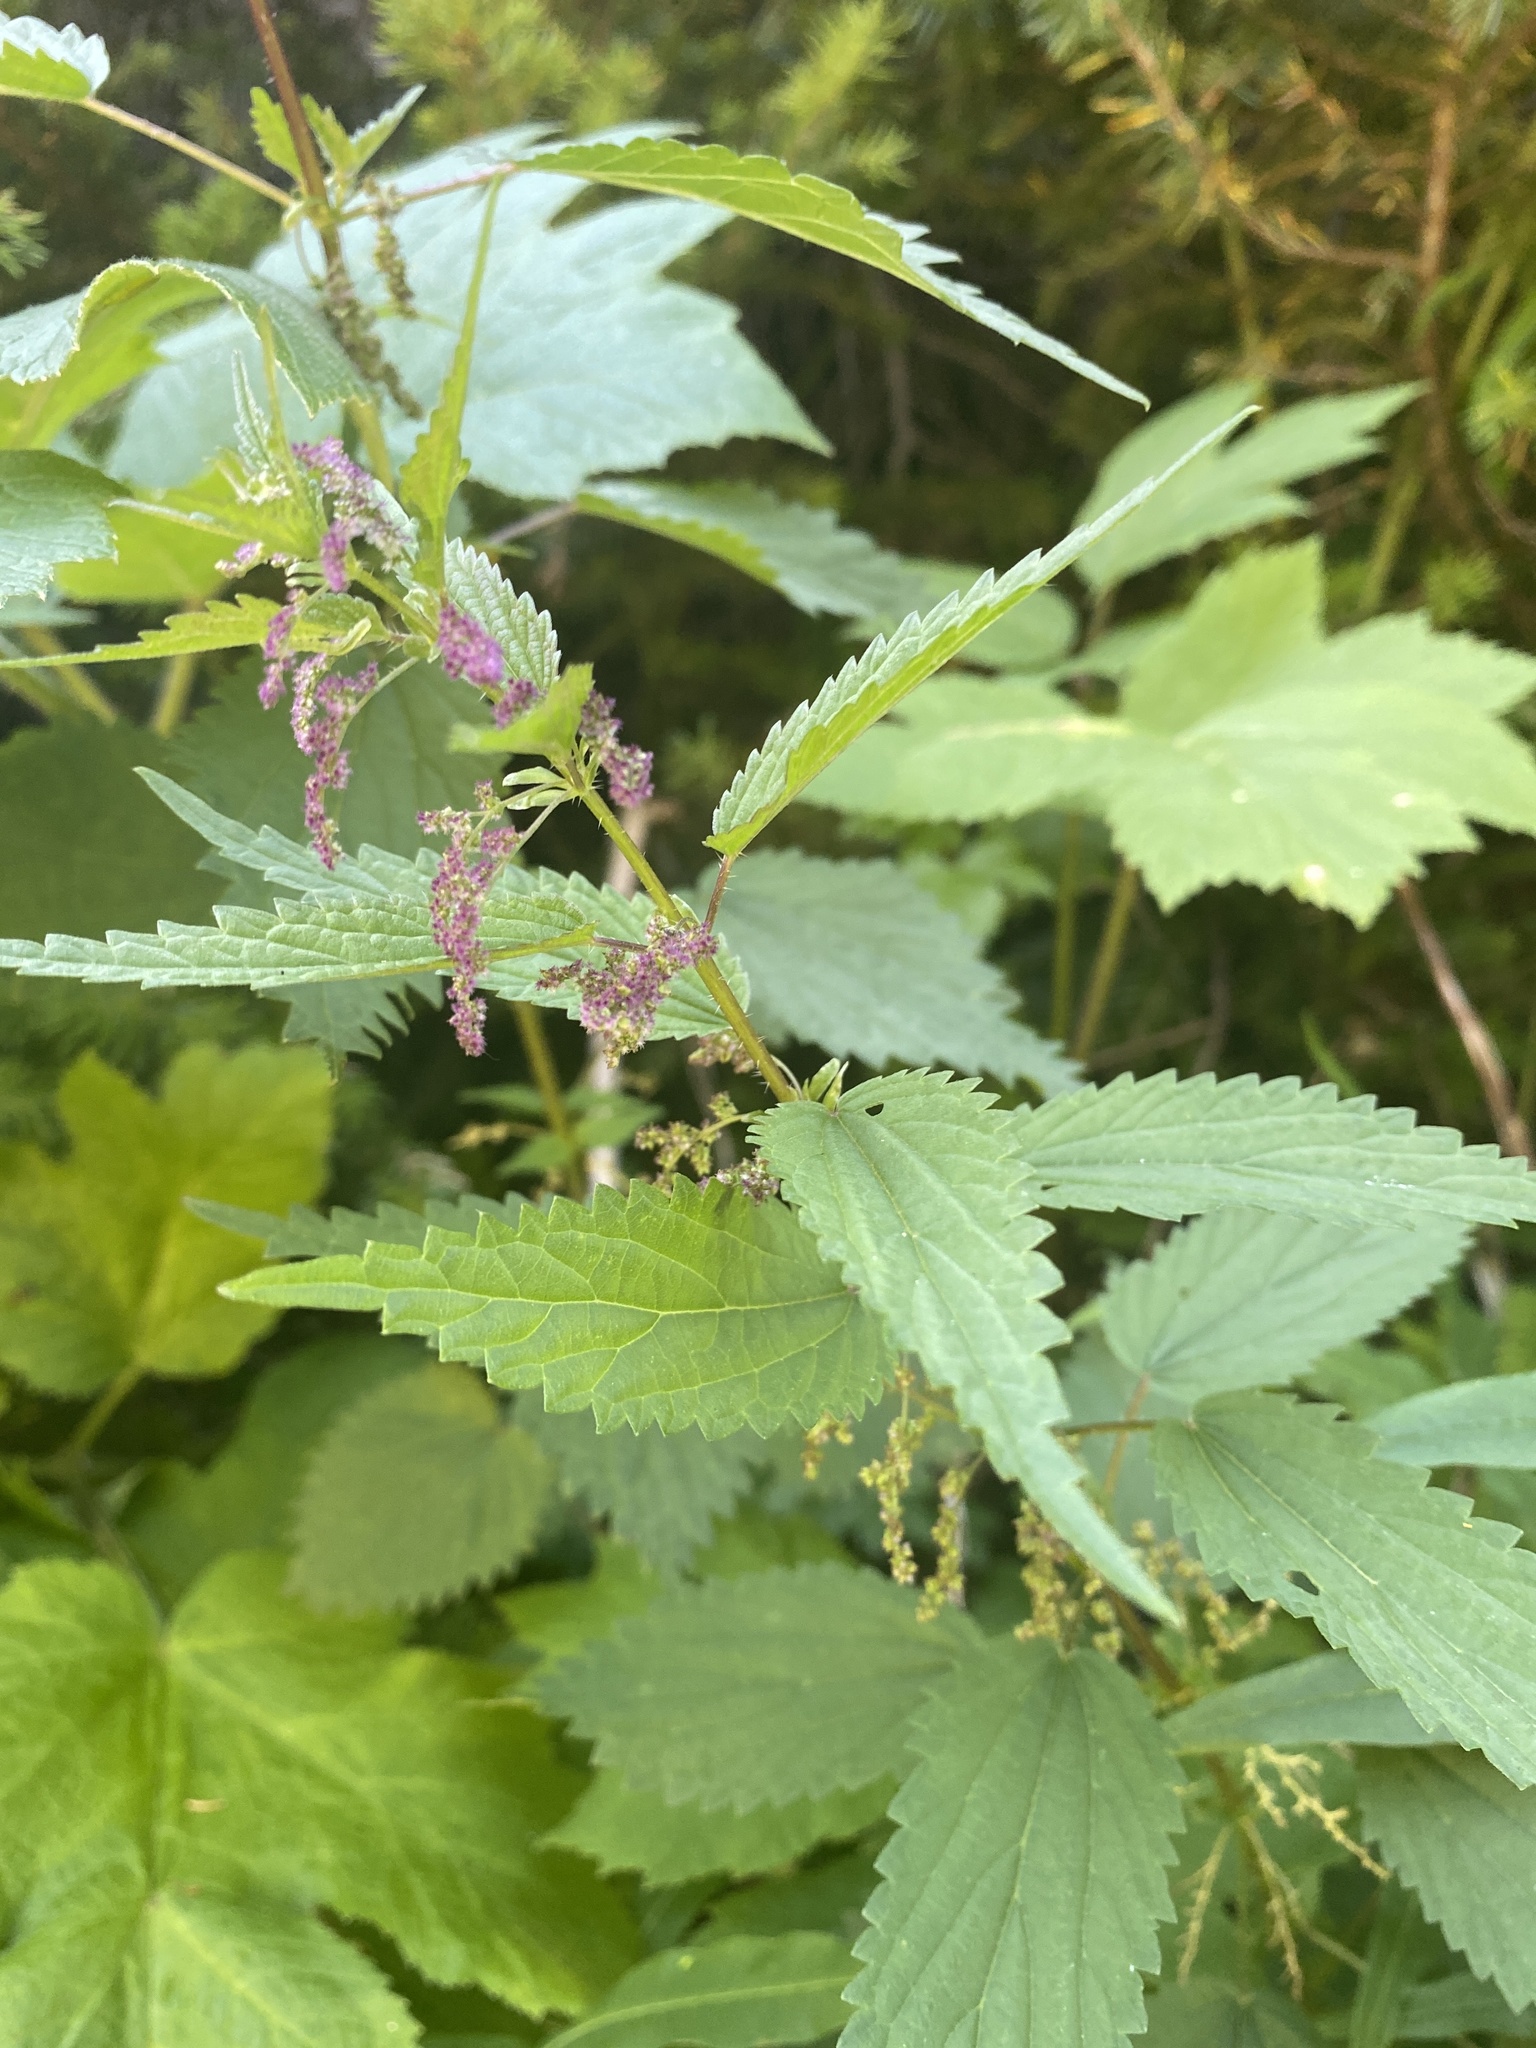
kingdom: Plantae
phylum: Tracheophyta
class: Magnoliopsida
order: Rosales
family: Urticaceae
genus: Urtica
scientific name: Urtica dioica
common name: Common nettle
